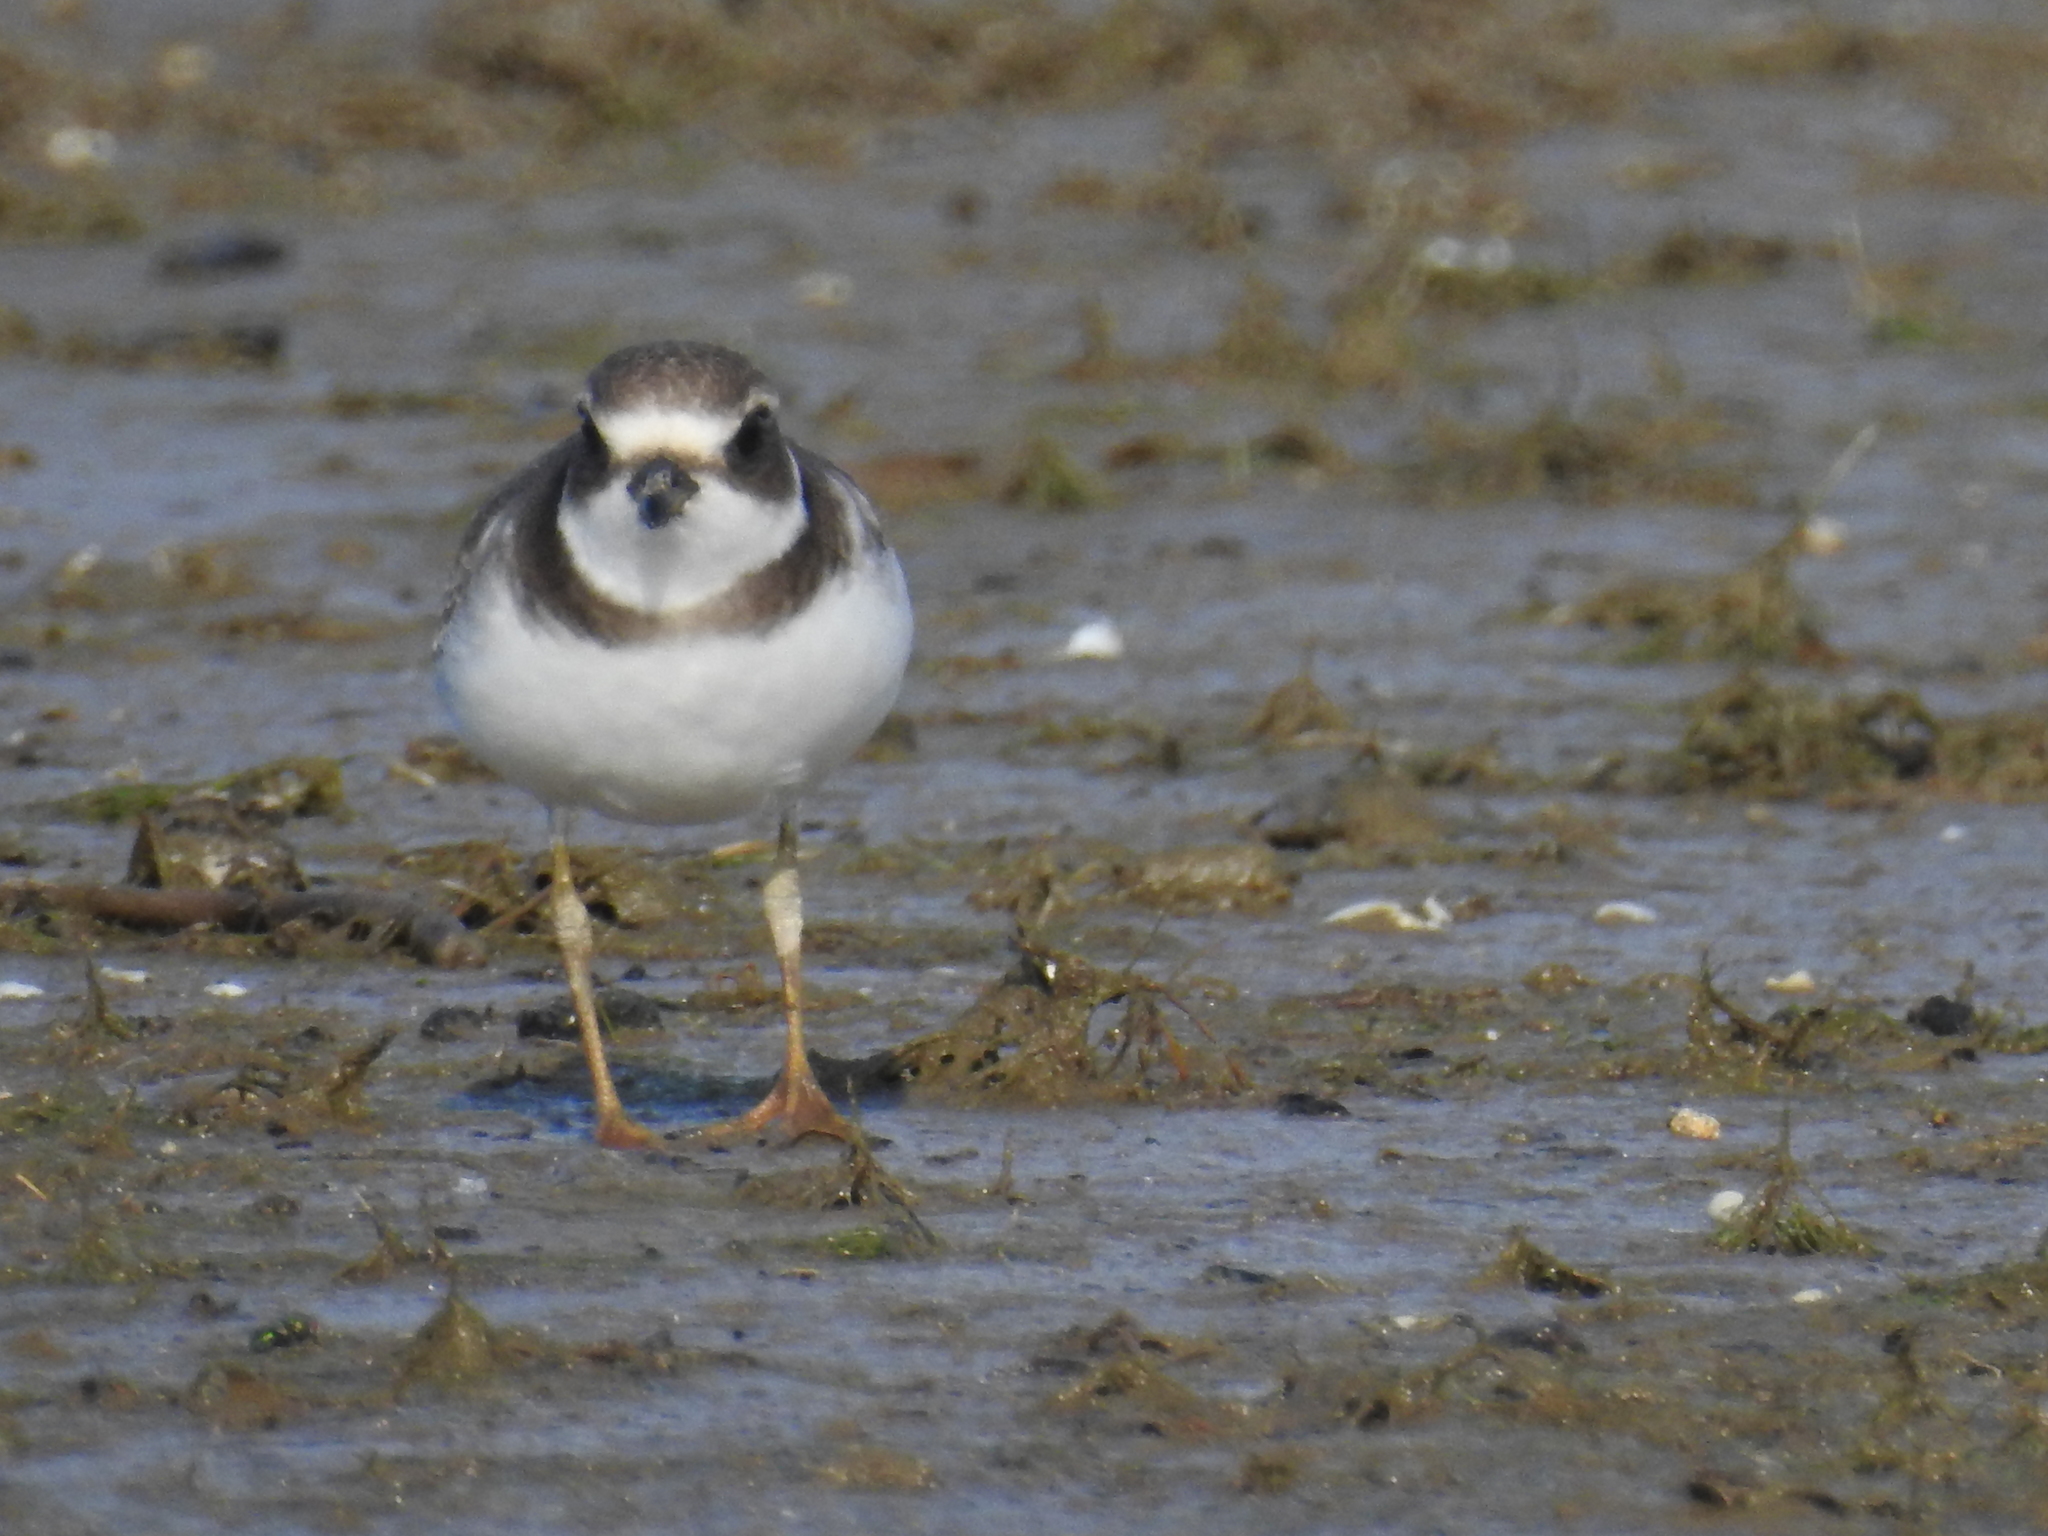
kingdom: Animalia
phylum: Chordata
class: Aves
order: Charadriiformes
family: Charadriidae
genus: Charadrius
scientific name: Charadrius semipalmatus
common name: Semipalmated plover
